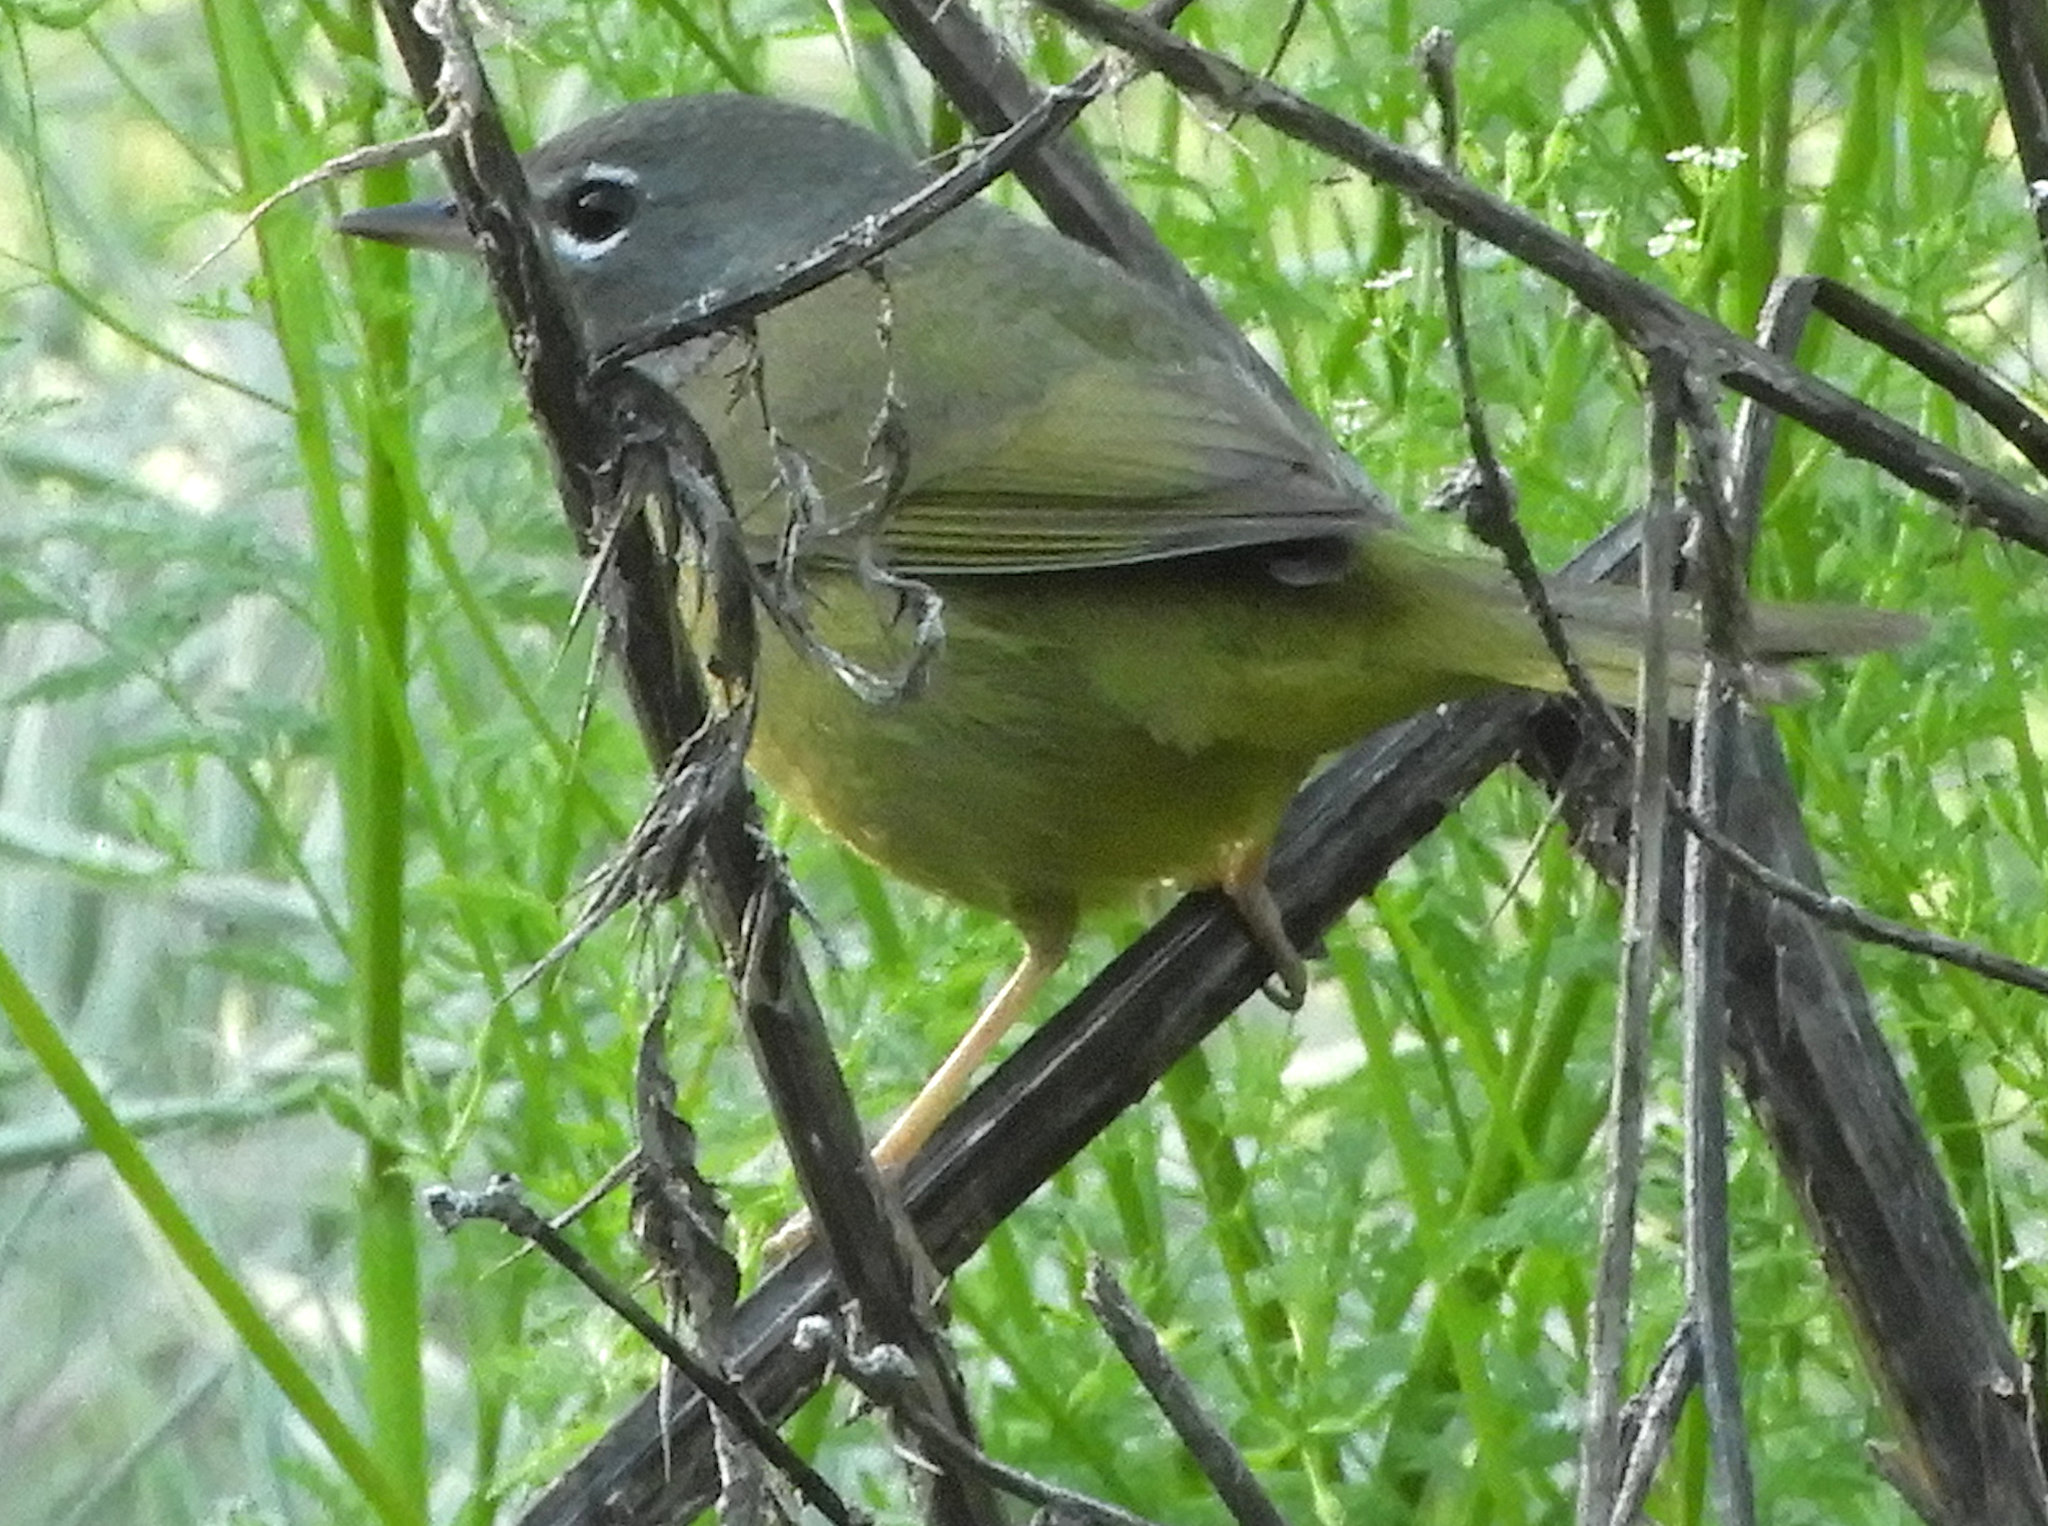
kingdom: Animalia
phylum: Chordata
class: Aves
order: Passeriformes
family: Parulidae
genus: Geothlypis
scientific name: Geothlypis tolmiei
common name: Macgillivray's warbler
